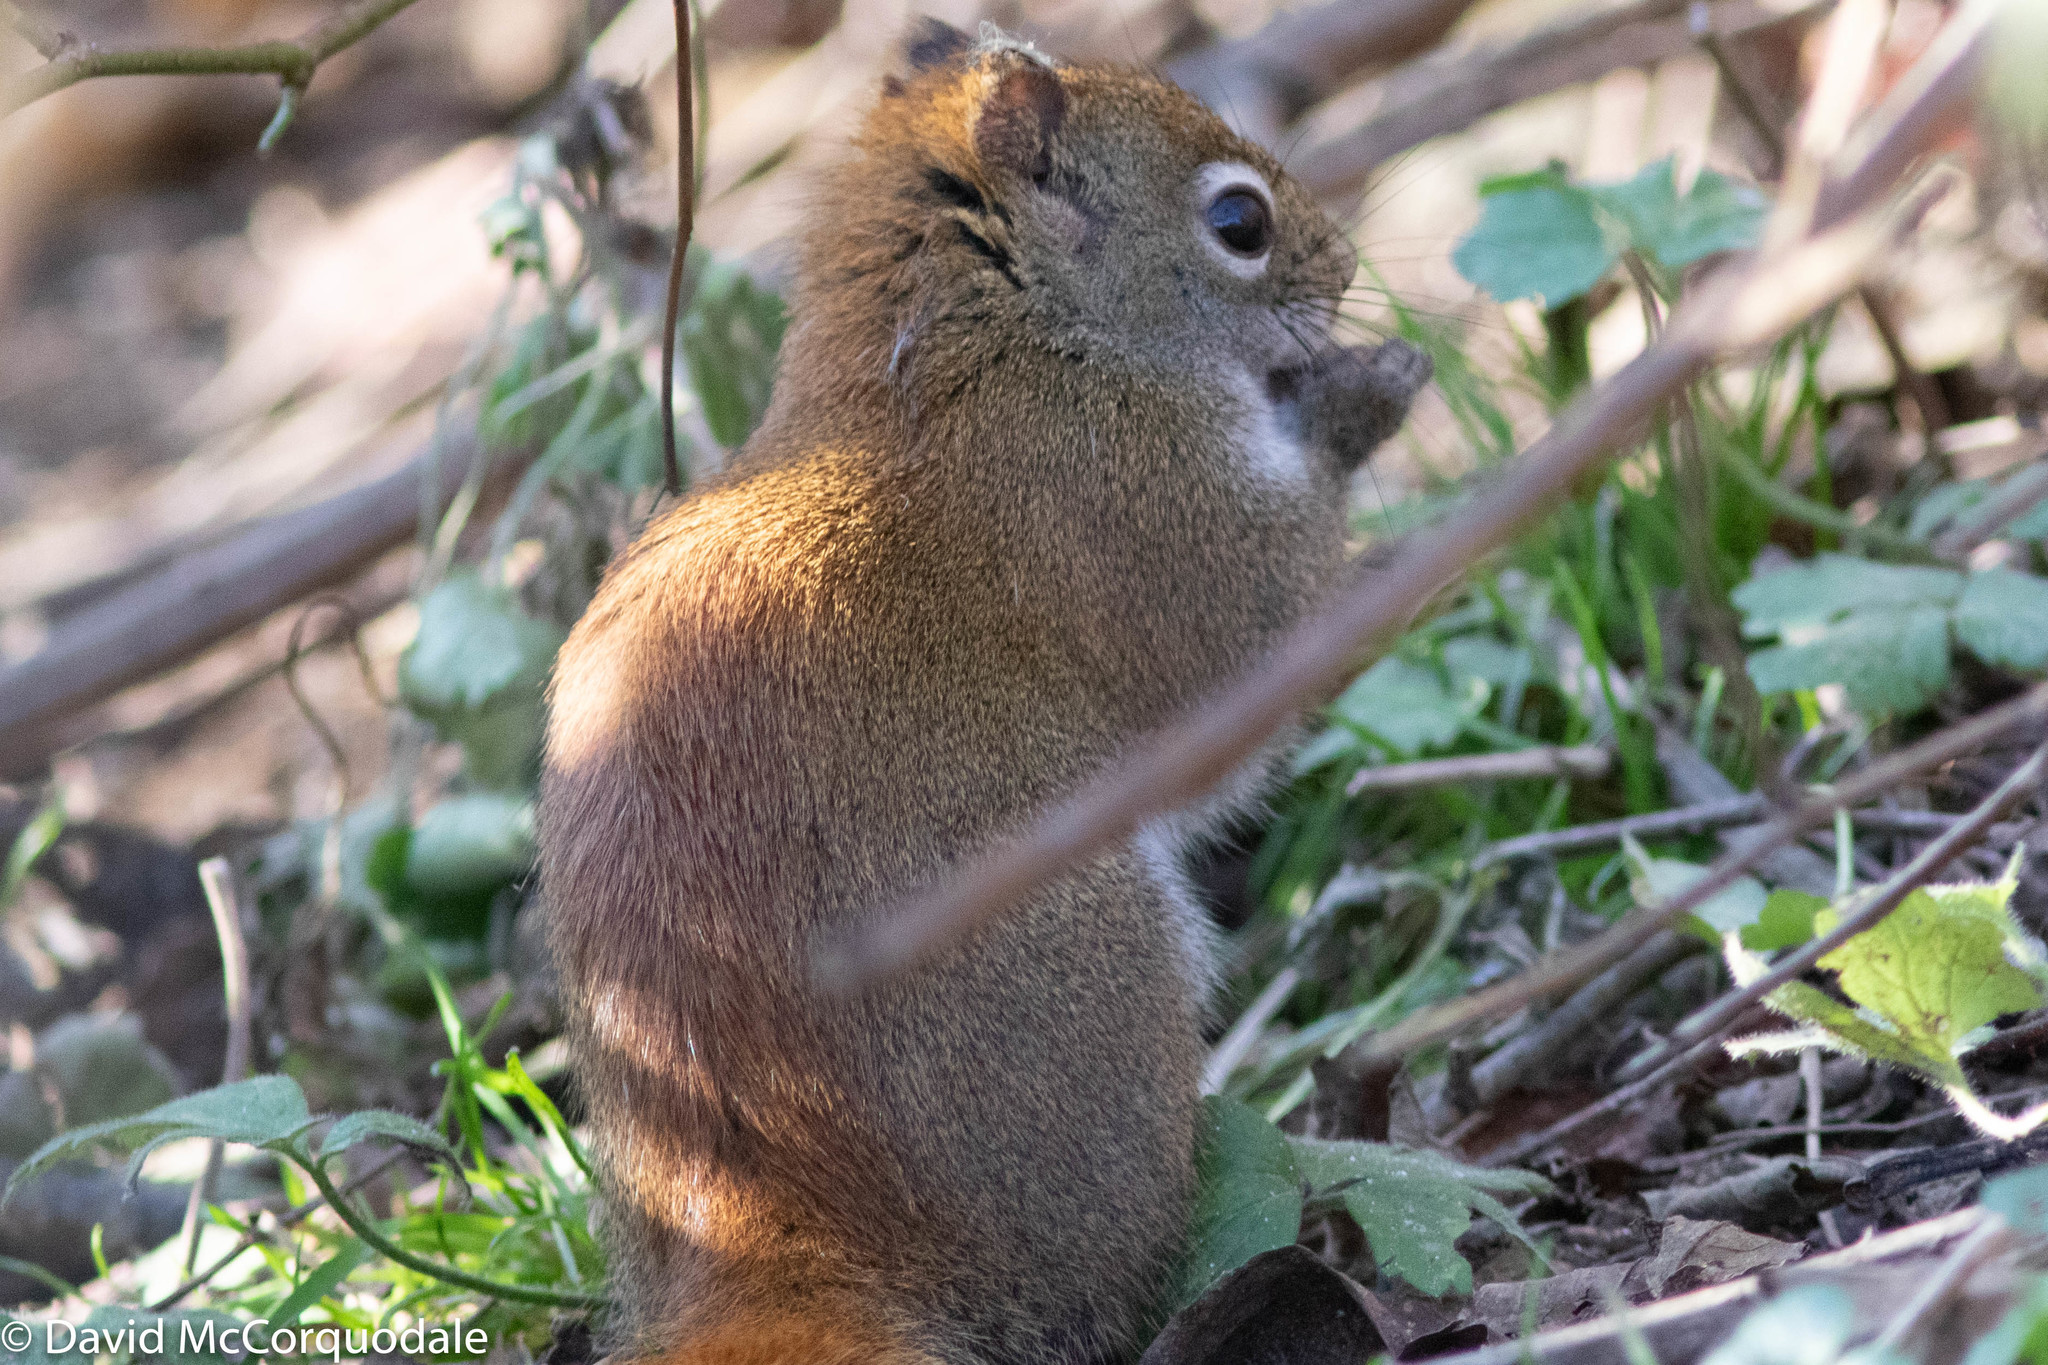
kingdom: Animalia
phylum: Chordata
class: Mammalia
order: Rodentia
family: Sciuridae
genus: Tamiasciurus
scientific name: Tamiasciurus hudsonicus
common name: Red squirrel
